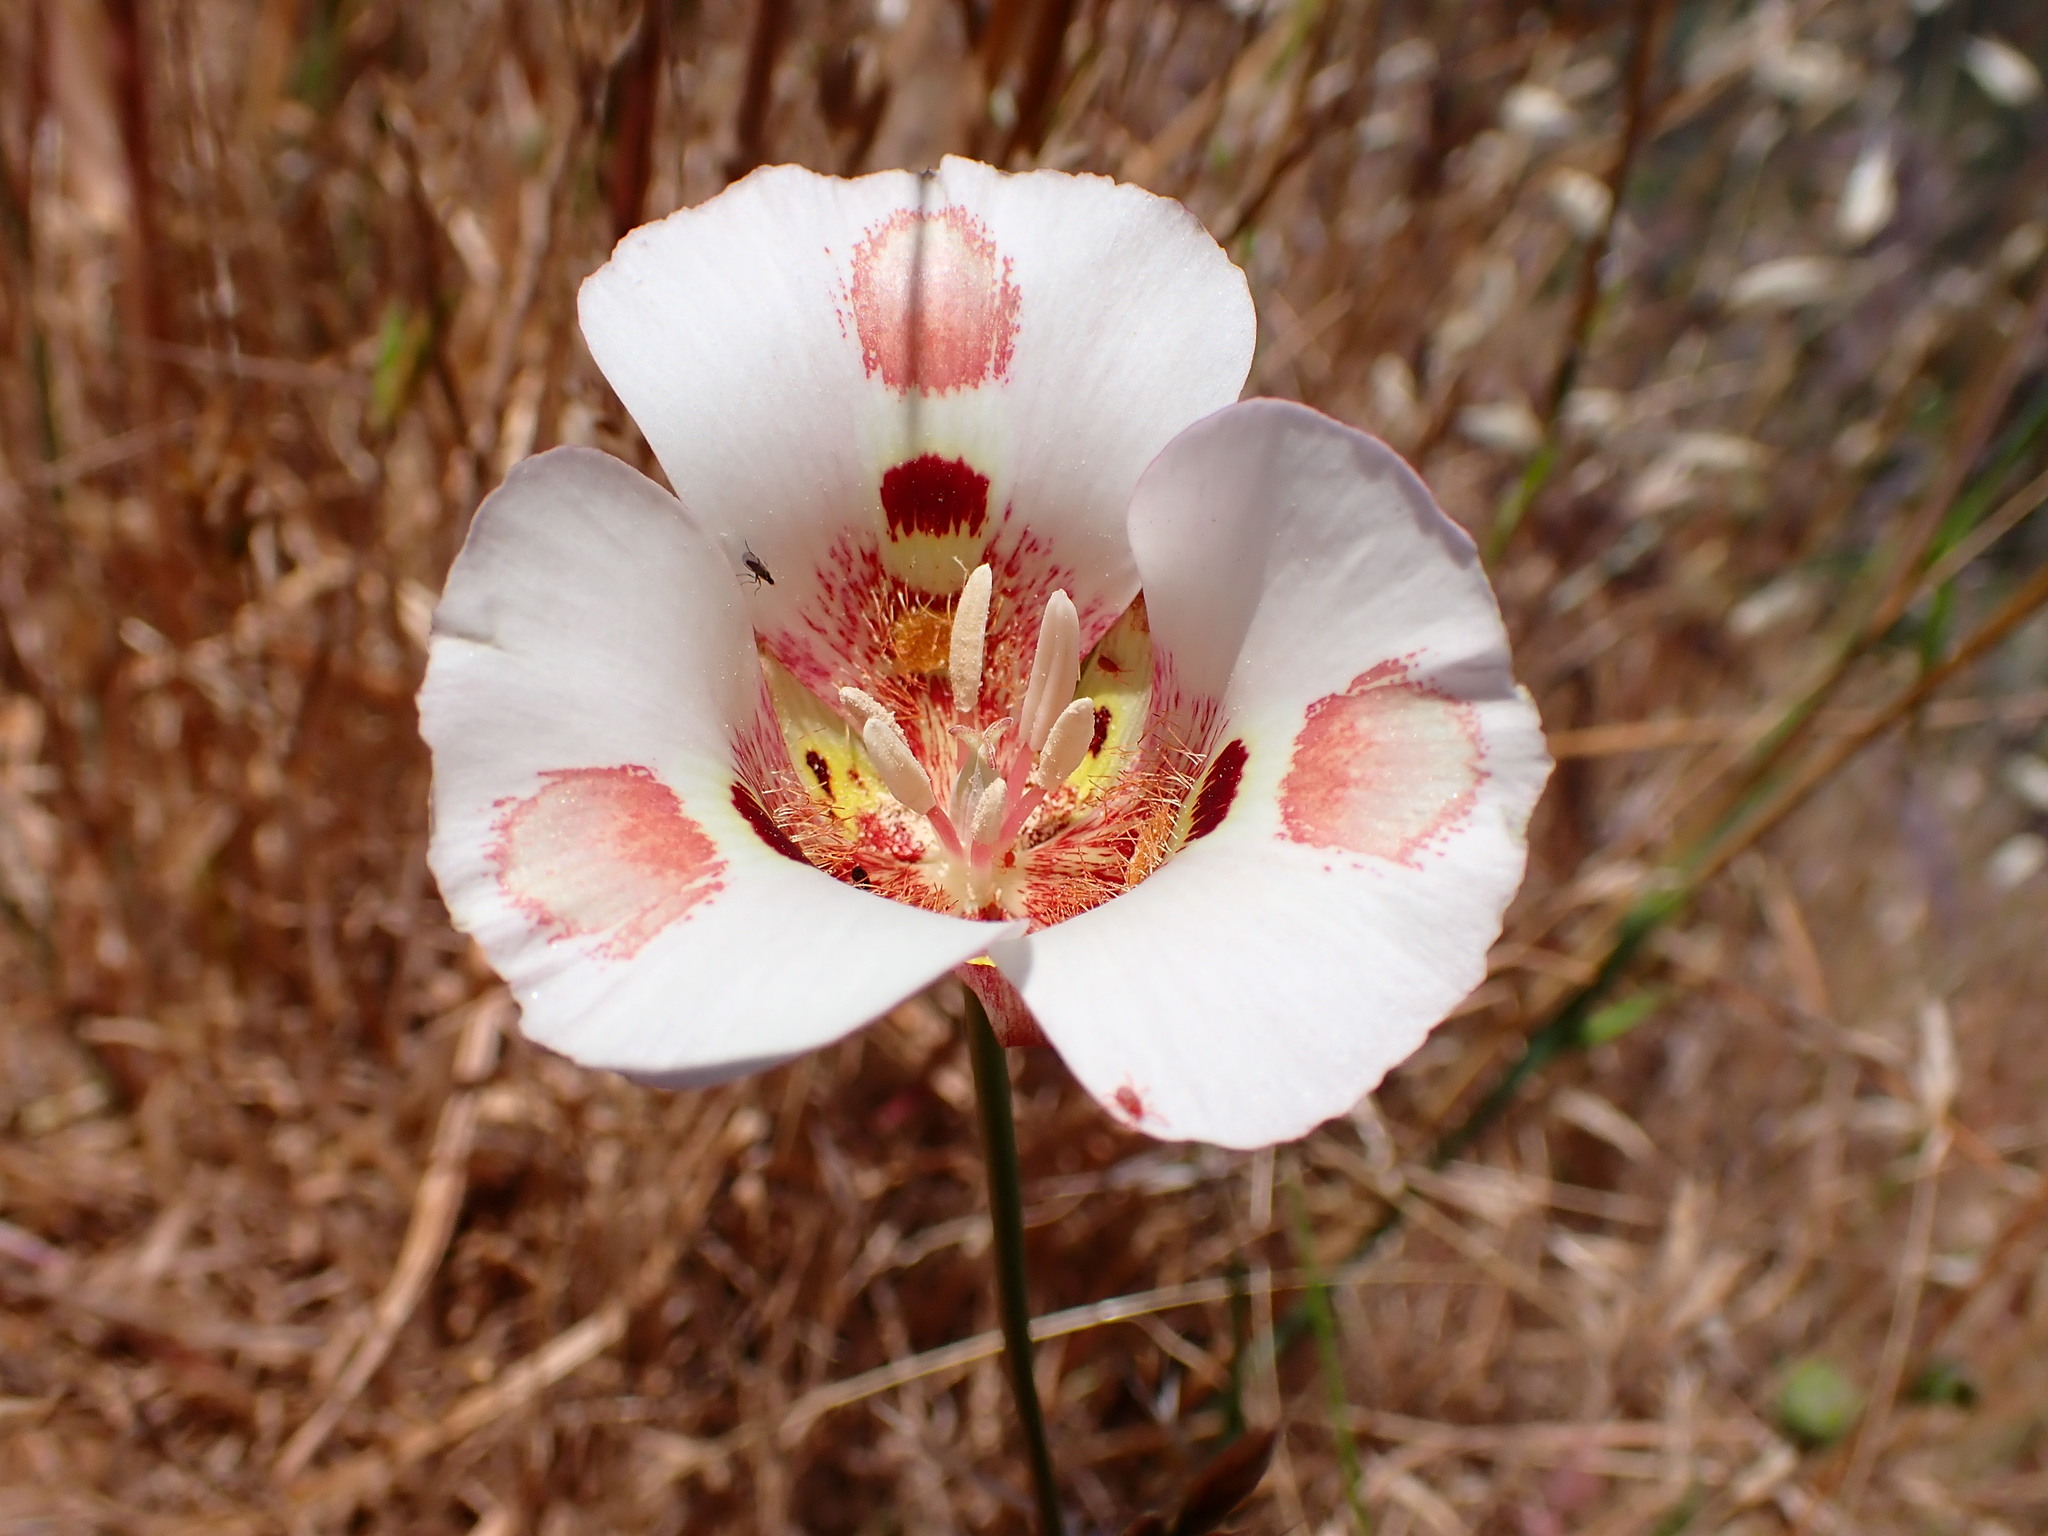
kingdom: Plantae
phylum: Tracheophyta
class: Liliopsida
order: Liliales
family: Liliaceae
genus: Calochortus
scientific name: Calochortus venustus
